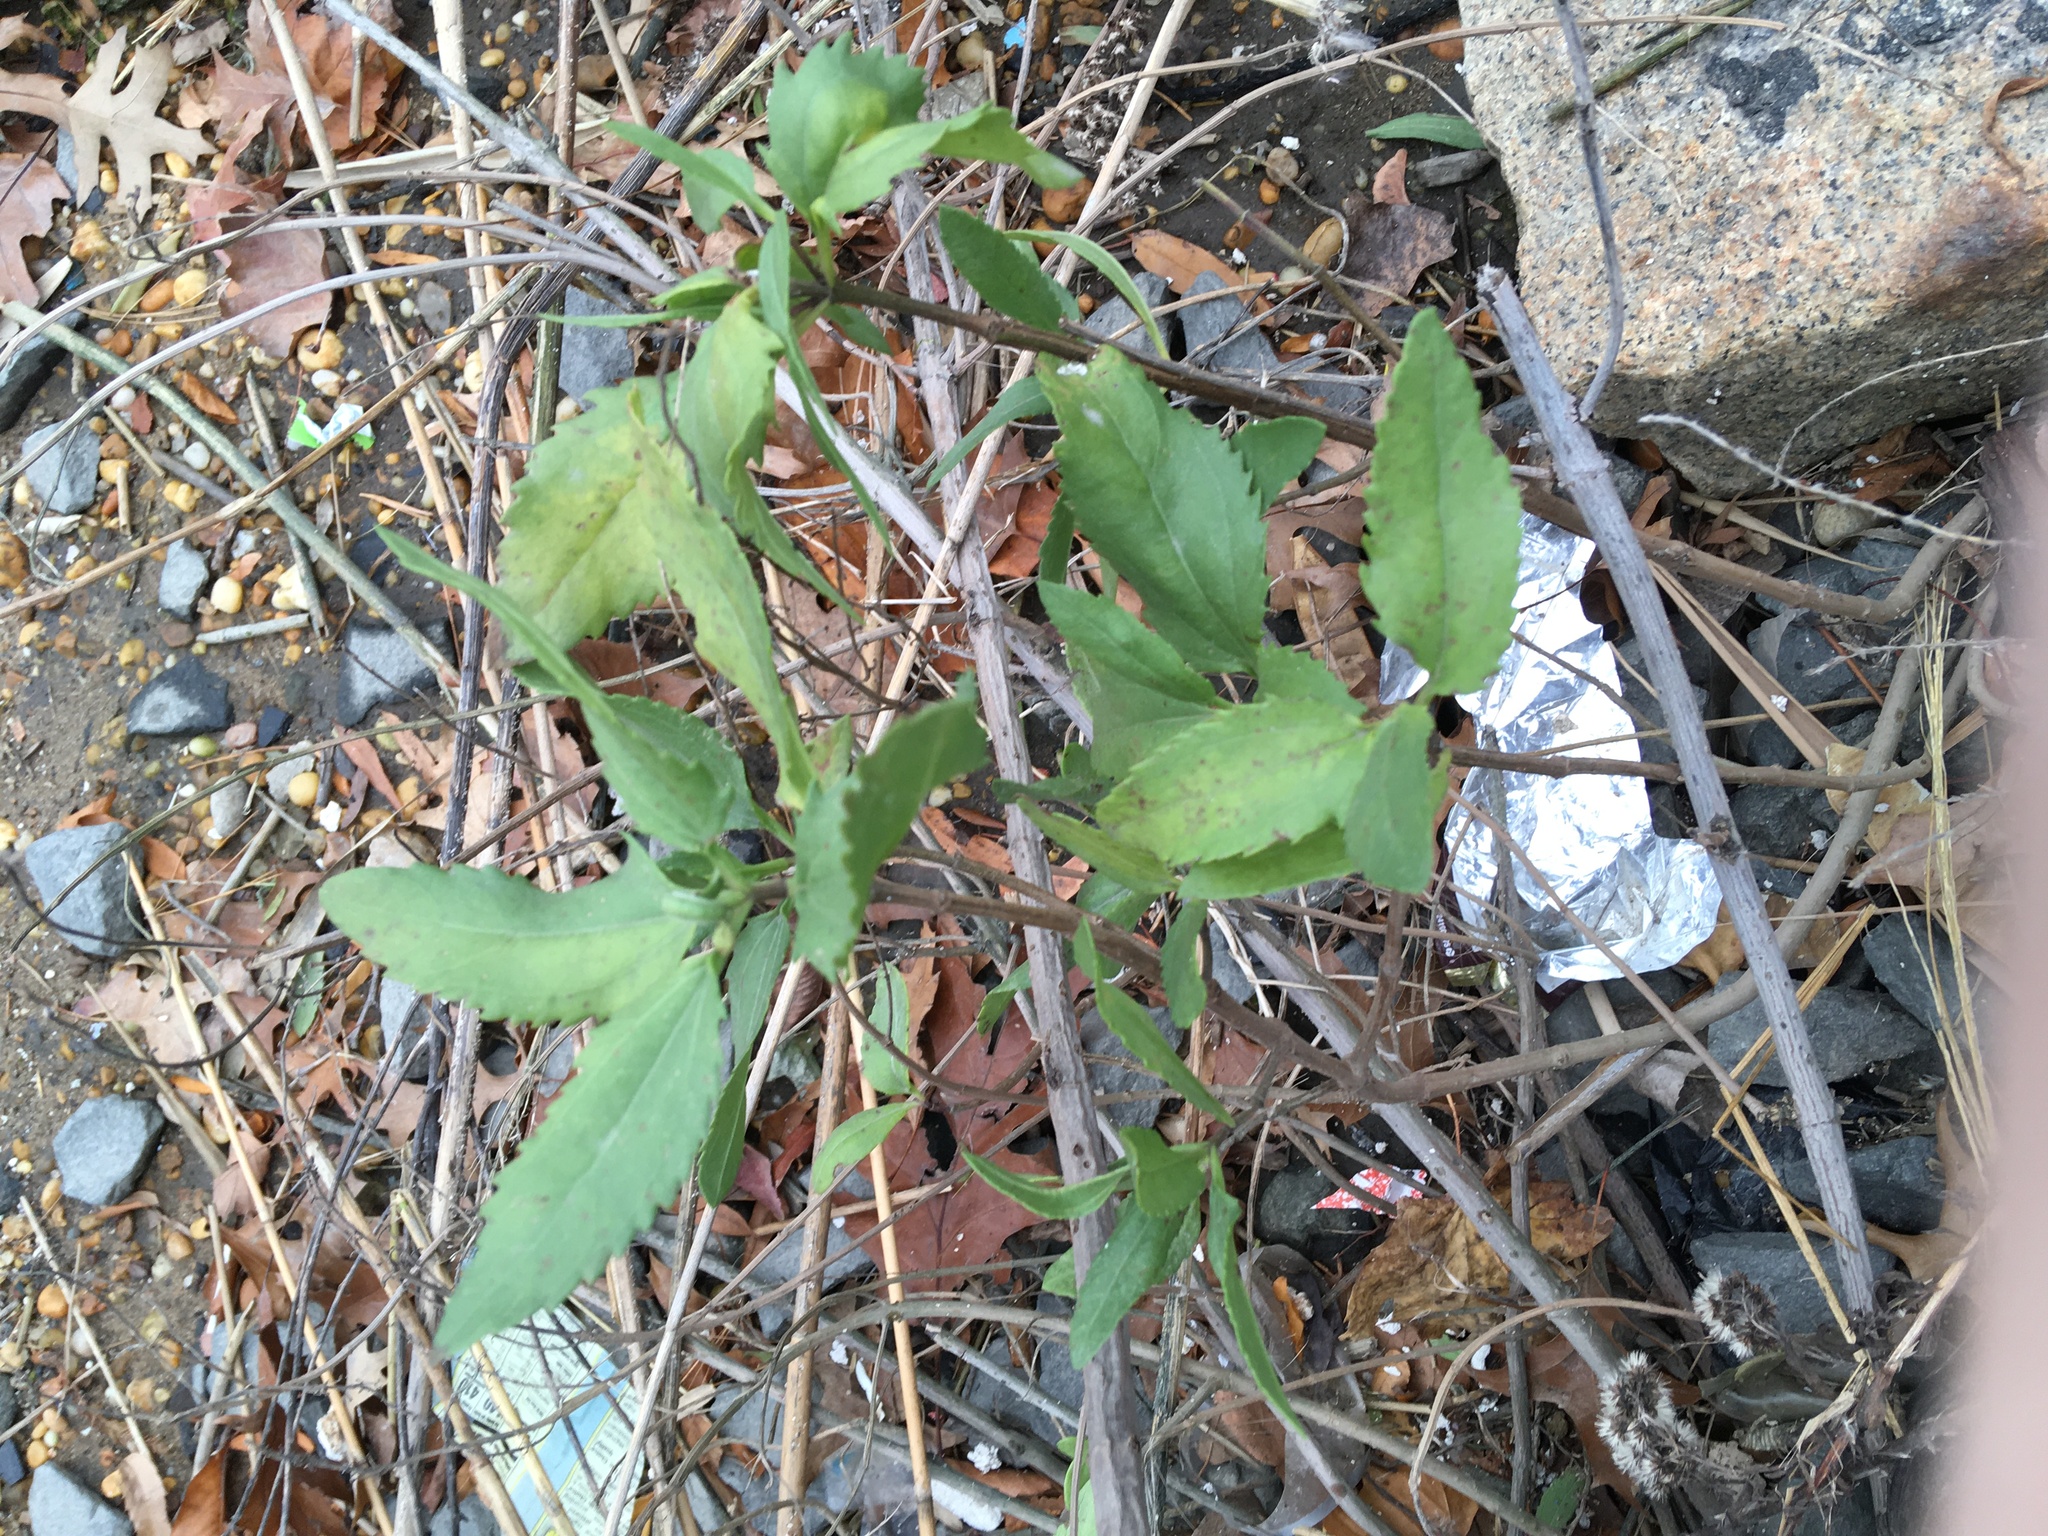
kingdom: Plantae
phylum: Tracheophyta
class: Magnoliopsida
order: Asterales
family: Asteraceae
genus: Iva
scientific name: Iva frutescens
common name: Big-leaved marsh-elder
